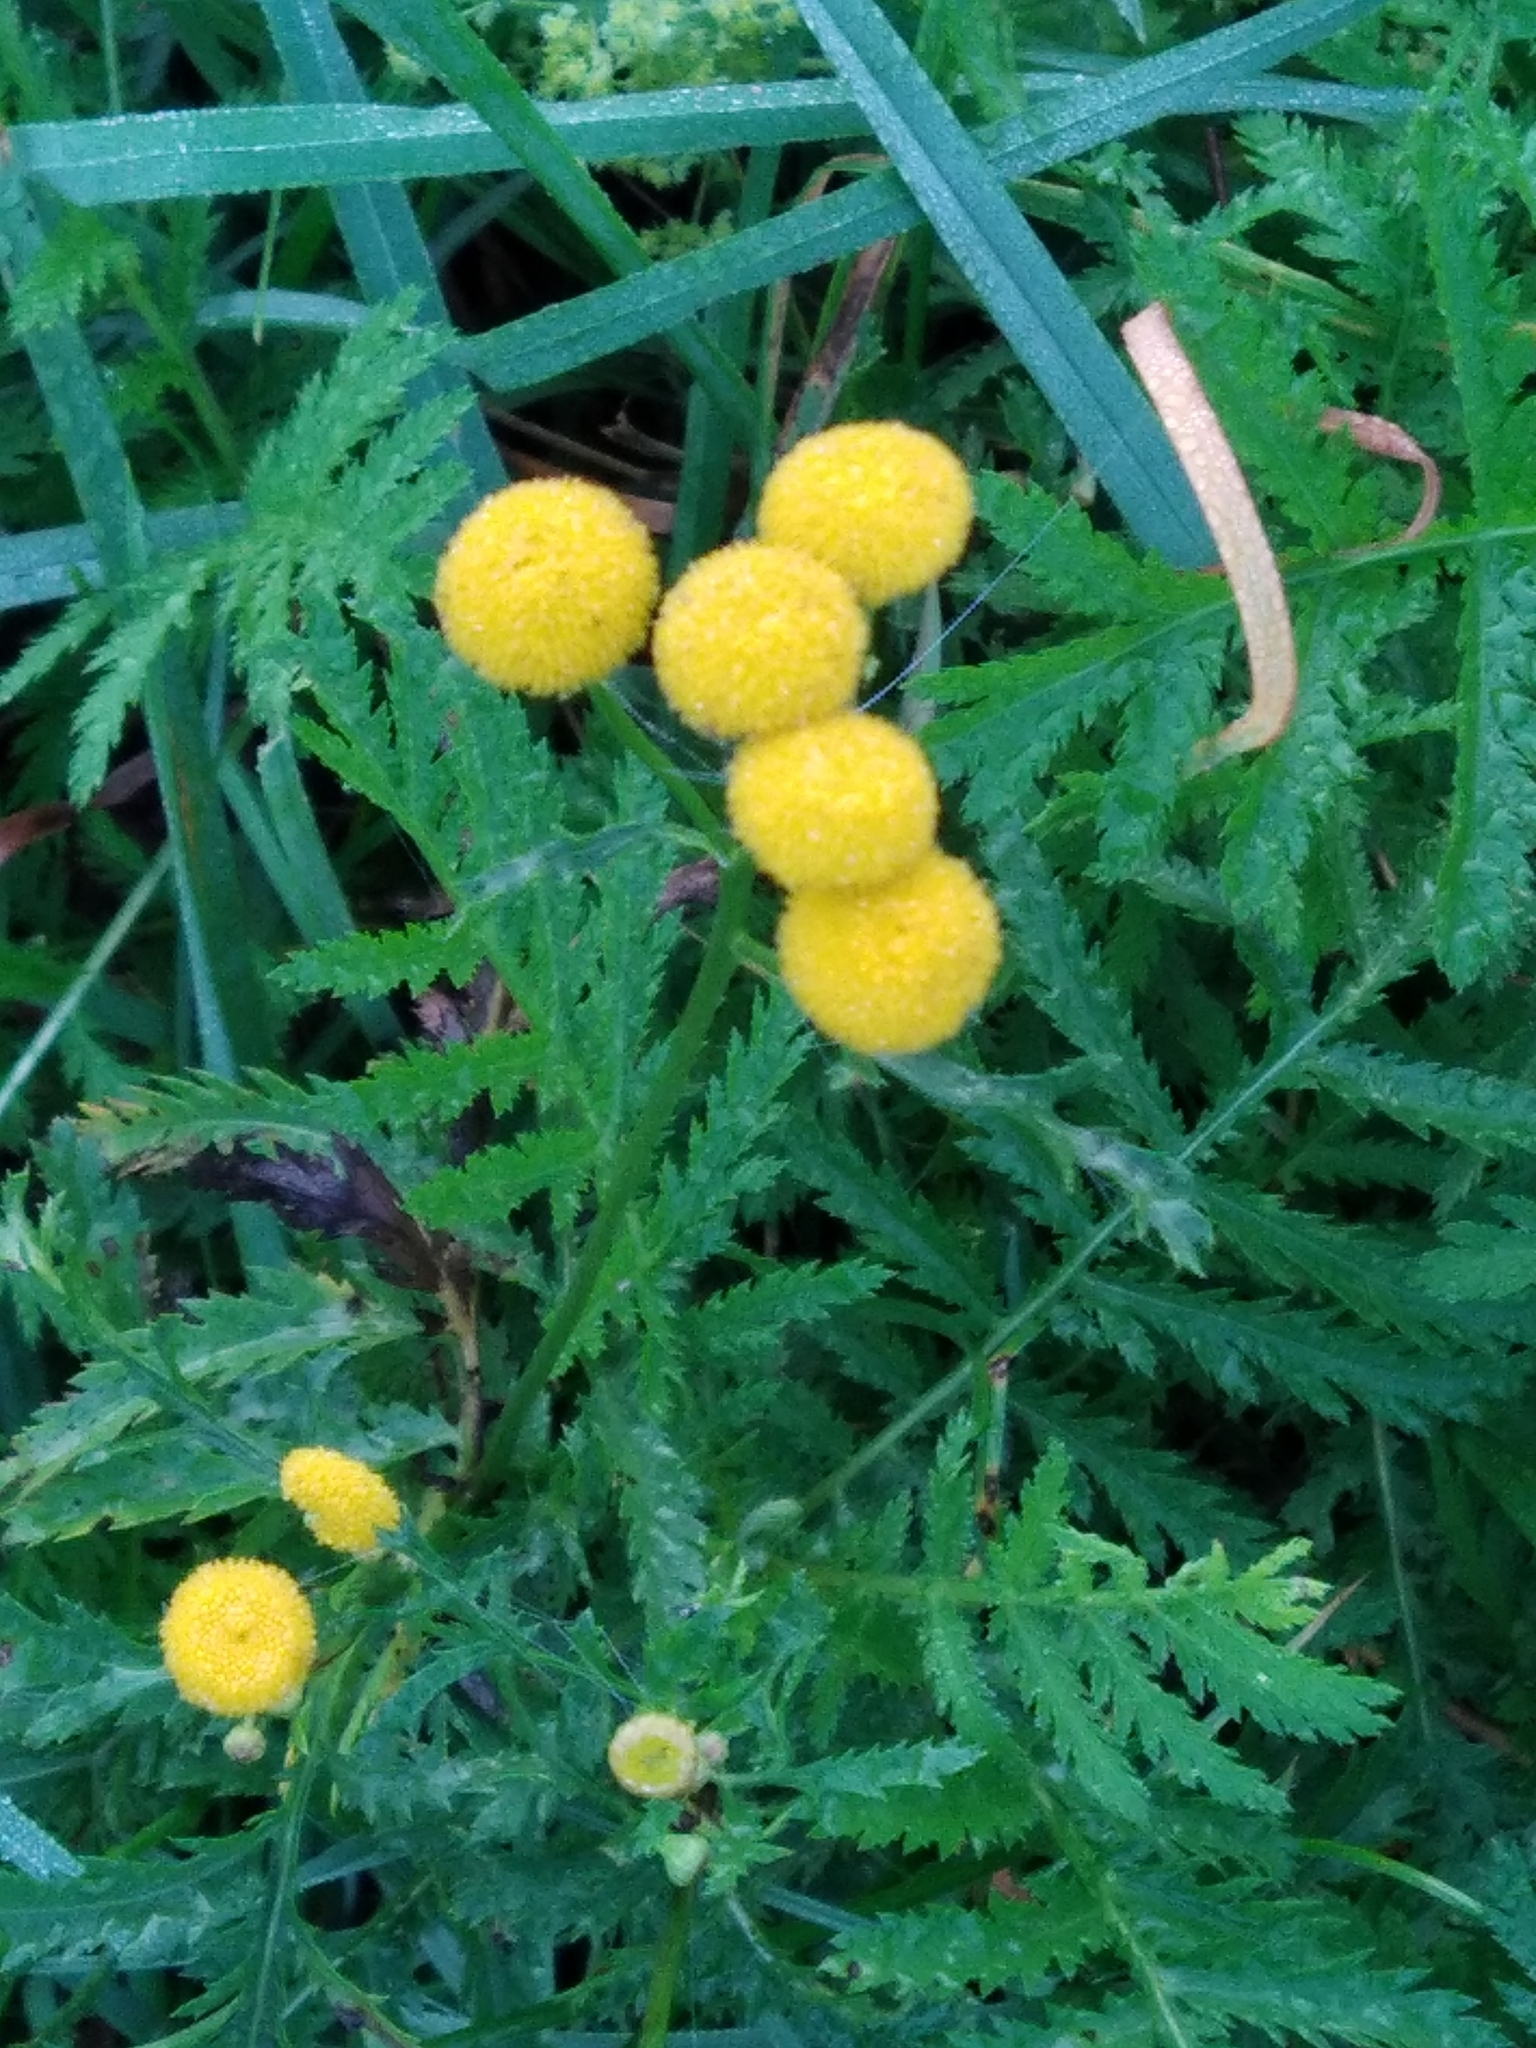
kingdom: Plantae
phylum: Tracheophyta
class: Magnoliopsida
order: Asterales
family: Asteraceae
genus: Tanacetum
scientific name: Tanacetum vulgare
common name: Common tansy
